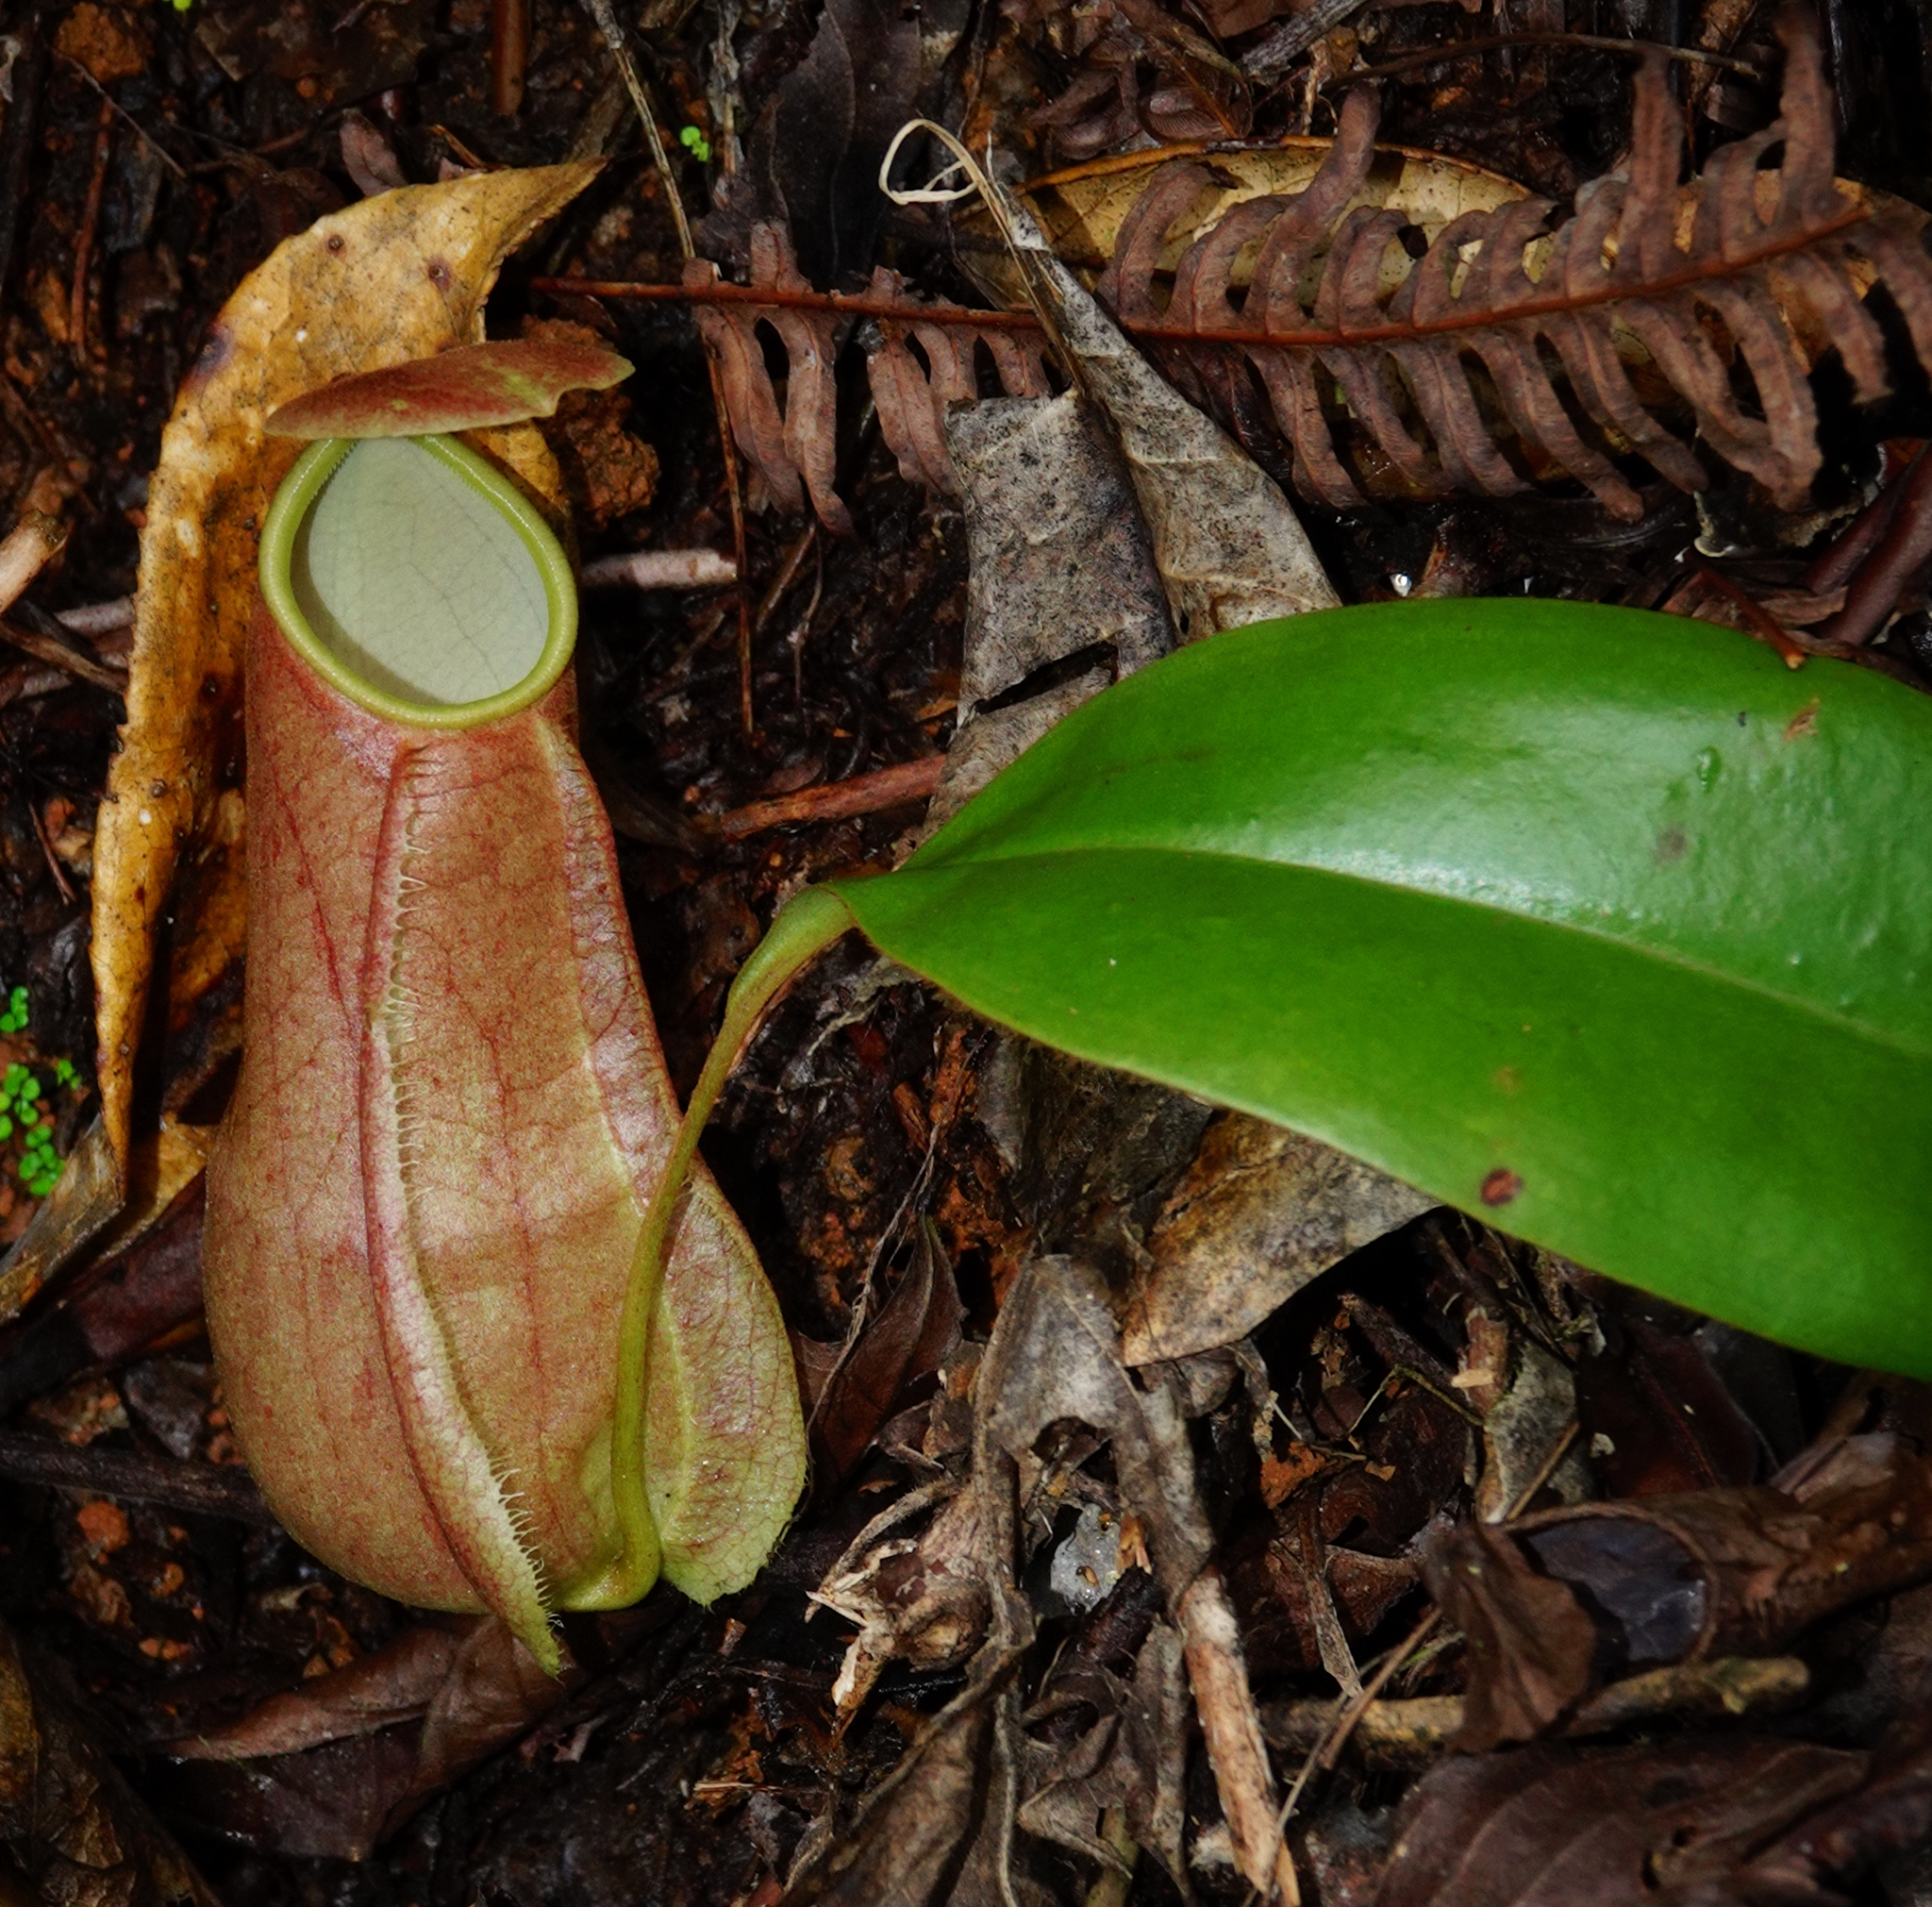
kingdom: Plantae
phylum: Tracheophyta
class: Magnoliopsida
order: Caryophyllales
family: Nepenthaceae
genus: Nepenthes
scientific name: Nepenthes distillatoria
